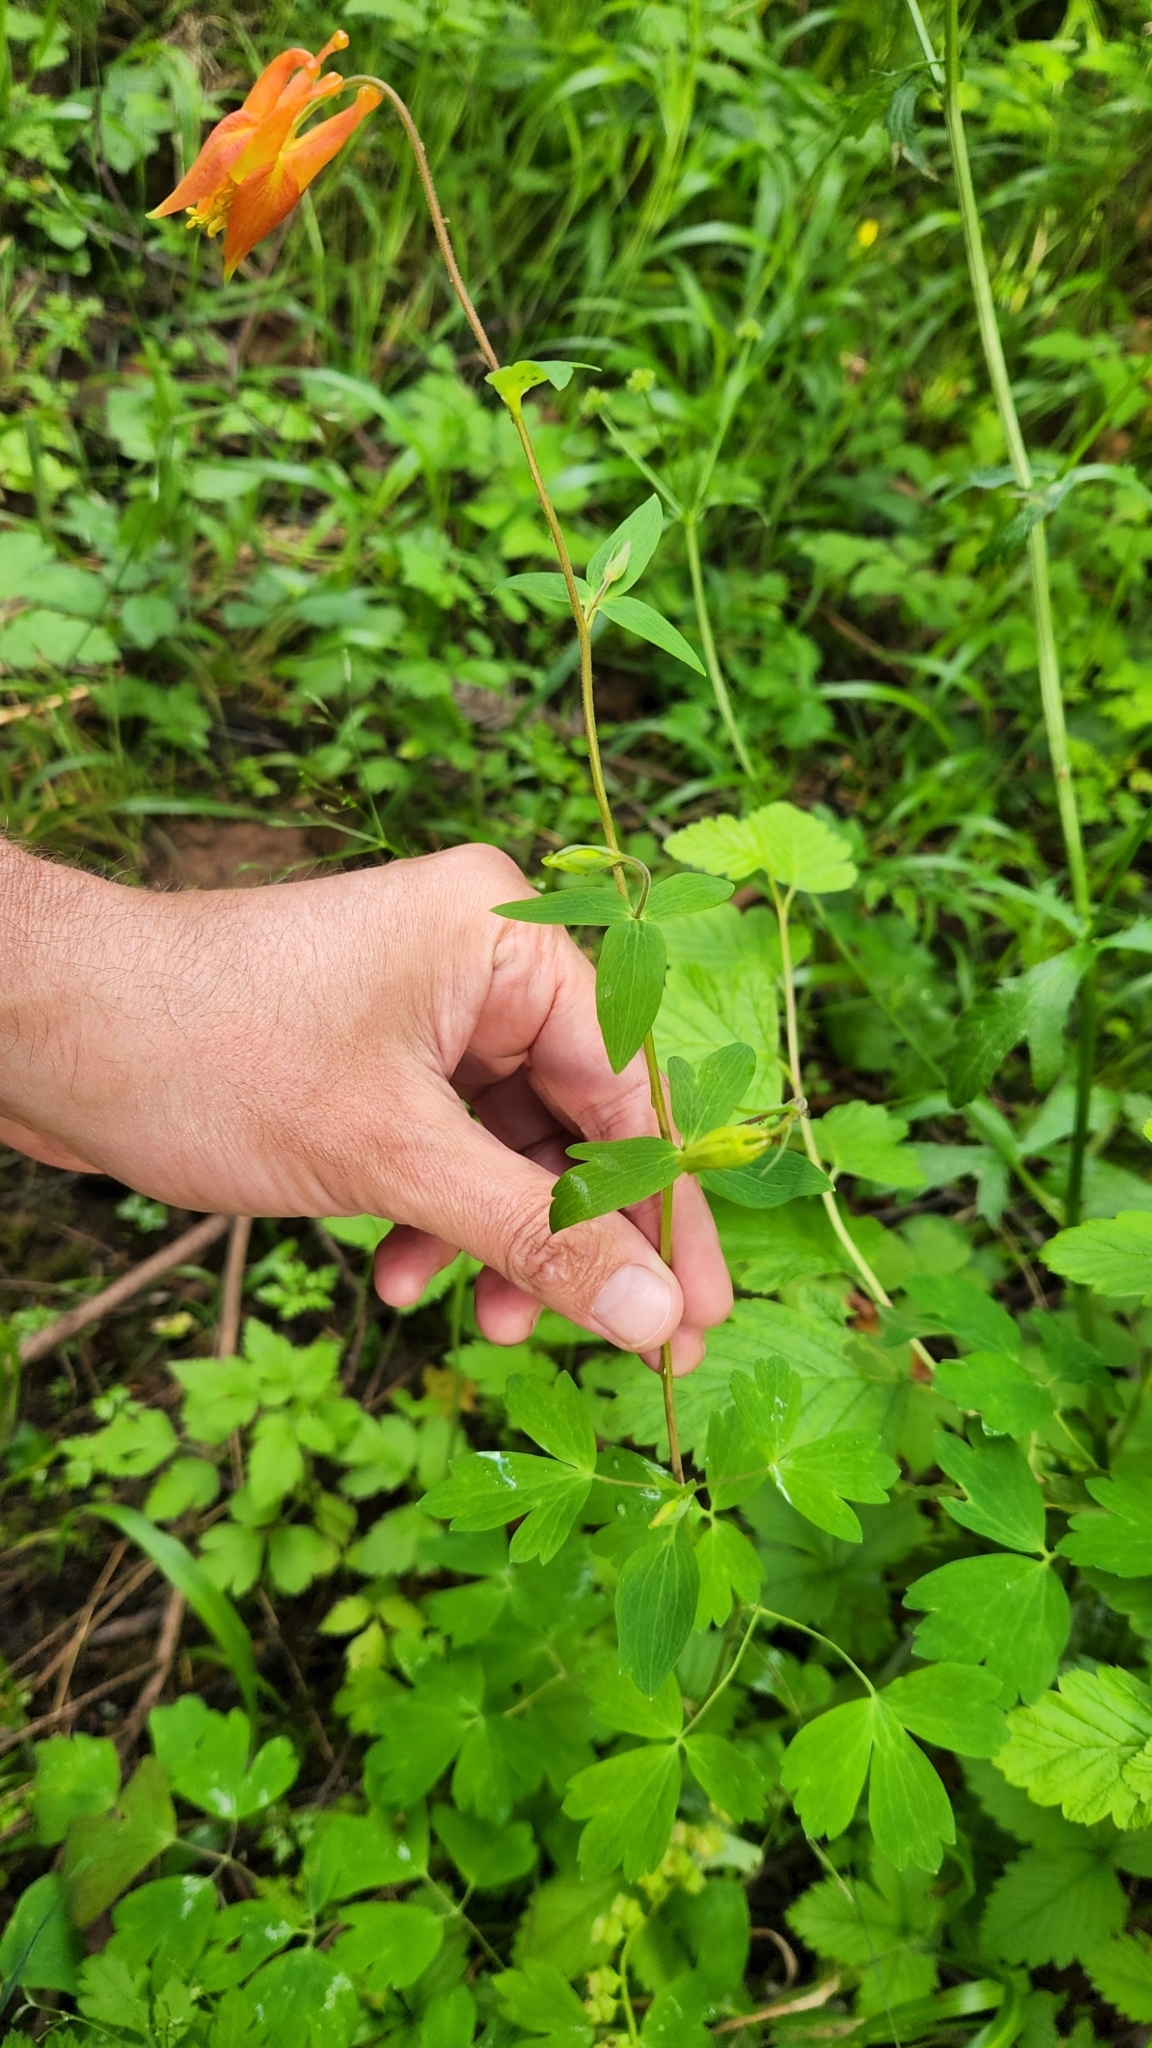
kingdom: Plantae
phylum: Tracheophyta
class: Magnoliopsida
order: Ranunculales
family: Ranunculaceae
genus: Aquilegia
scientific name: Aquilegia formosa
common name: Sitka columbine
